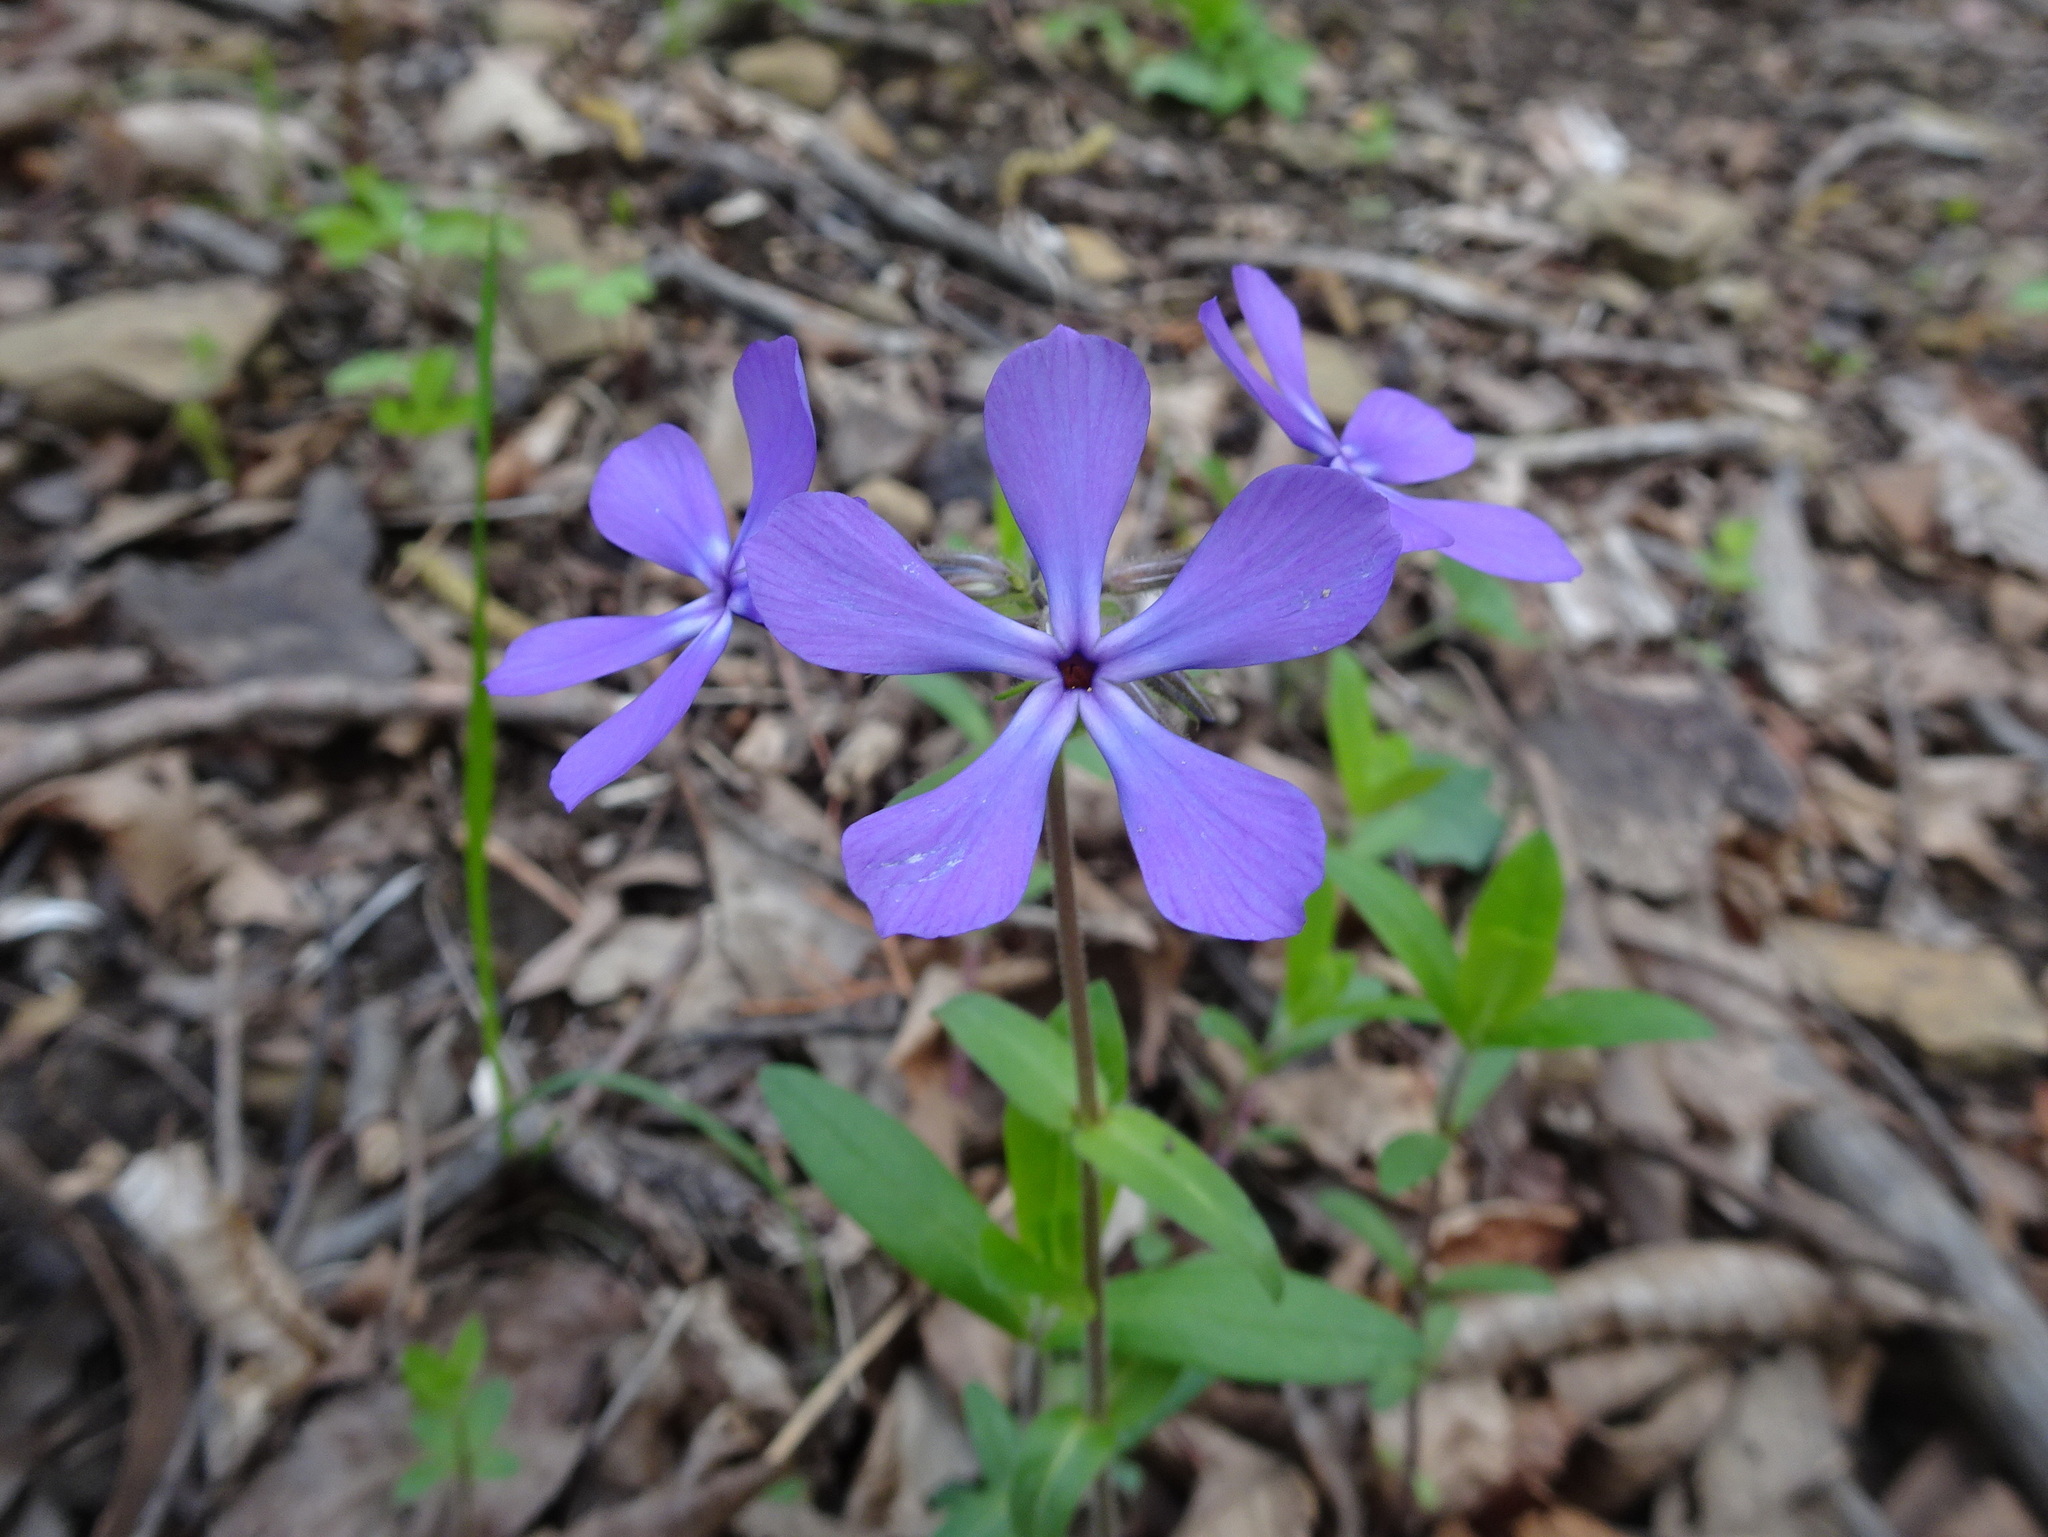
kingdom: Plantae
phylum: Tracheophyta
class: Magnoliopsida
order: Ericales
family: Polemoniaceae
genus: Phlox
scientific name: Phlox divaricata
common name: Blue phlox
